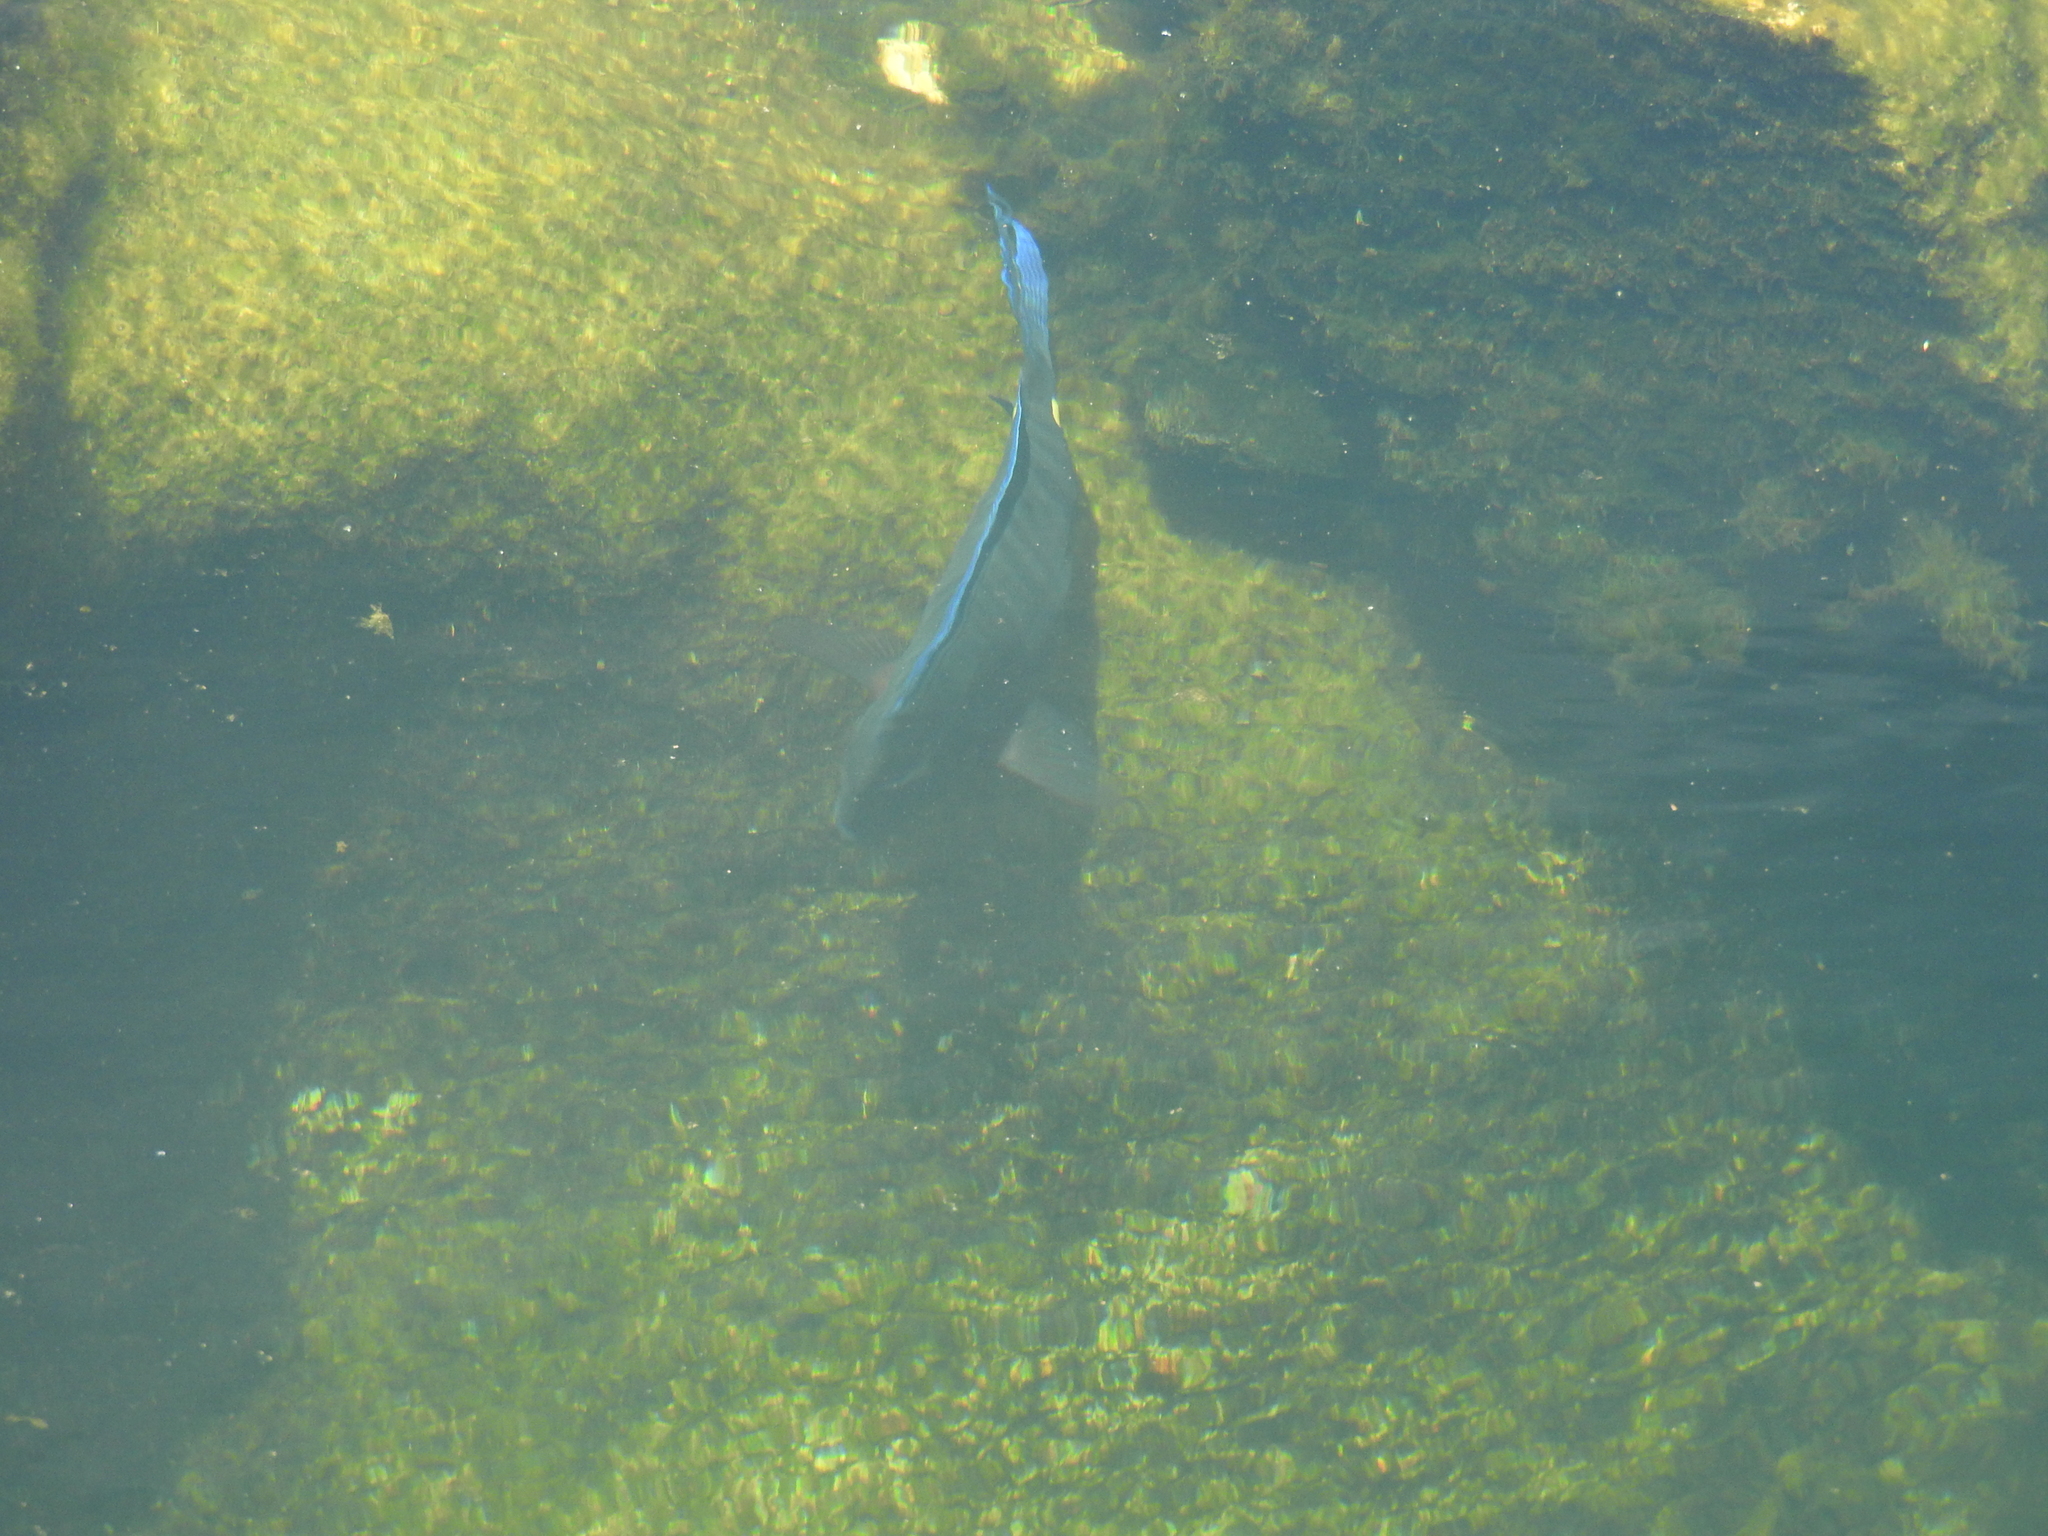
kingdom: Animalia
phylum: Chordata
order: Perciformes
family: Acanthuridae
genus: Acanthurus
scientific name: Acanthurus coeruleus
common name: Blue tang
